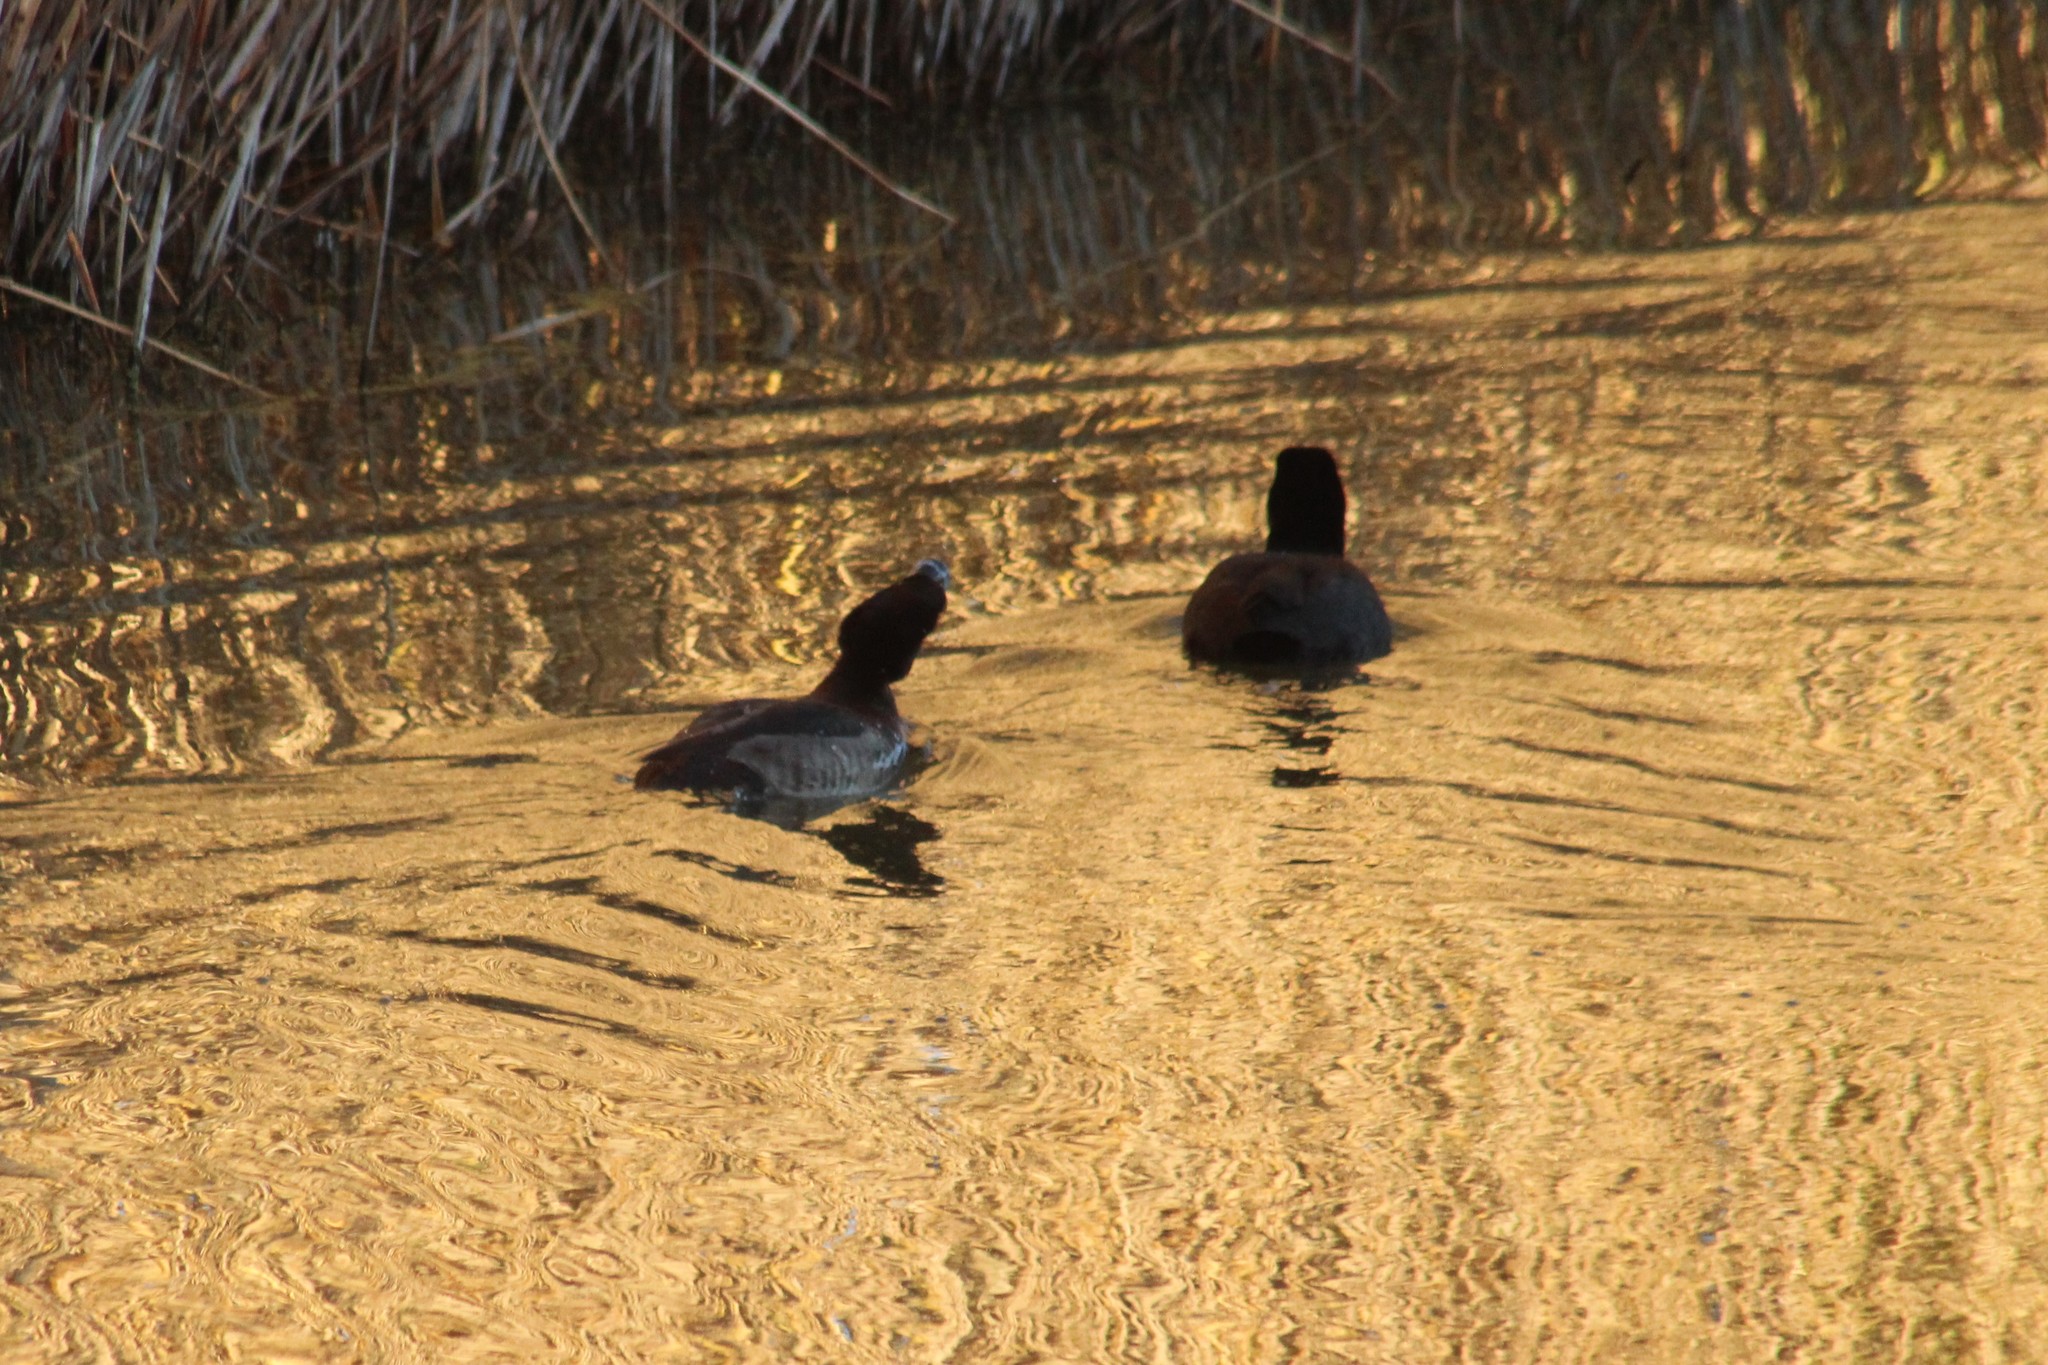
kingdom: Animalia
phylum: Chordata
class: Aves
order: Anseriformes
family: Anatidae
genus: Aythya
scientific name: Aythya fuligula
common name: Tufted duck
